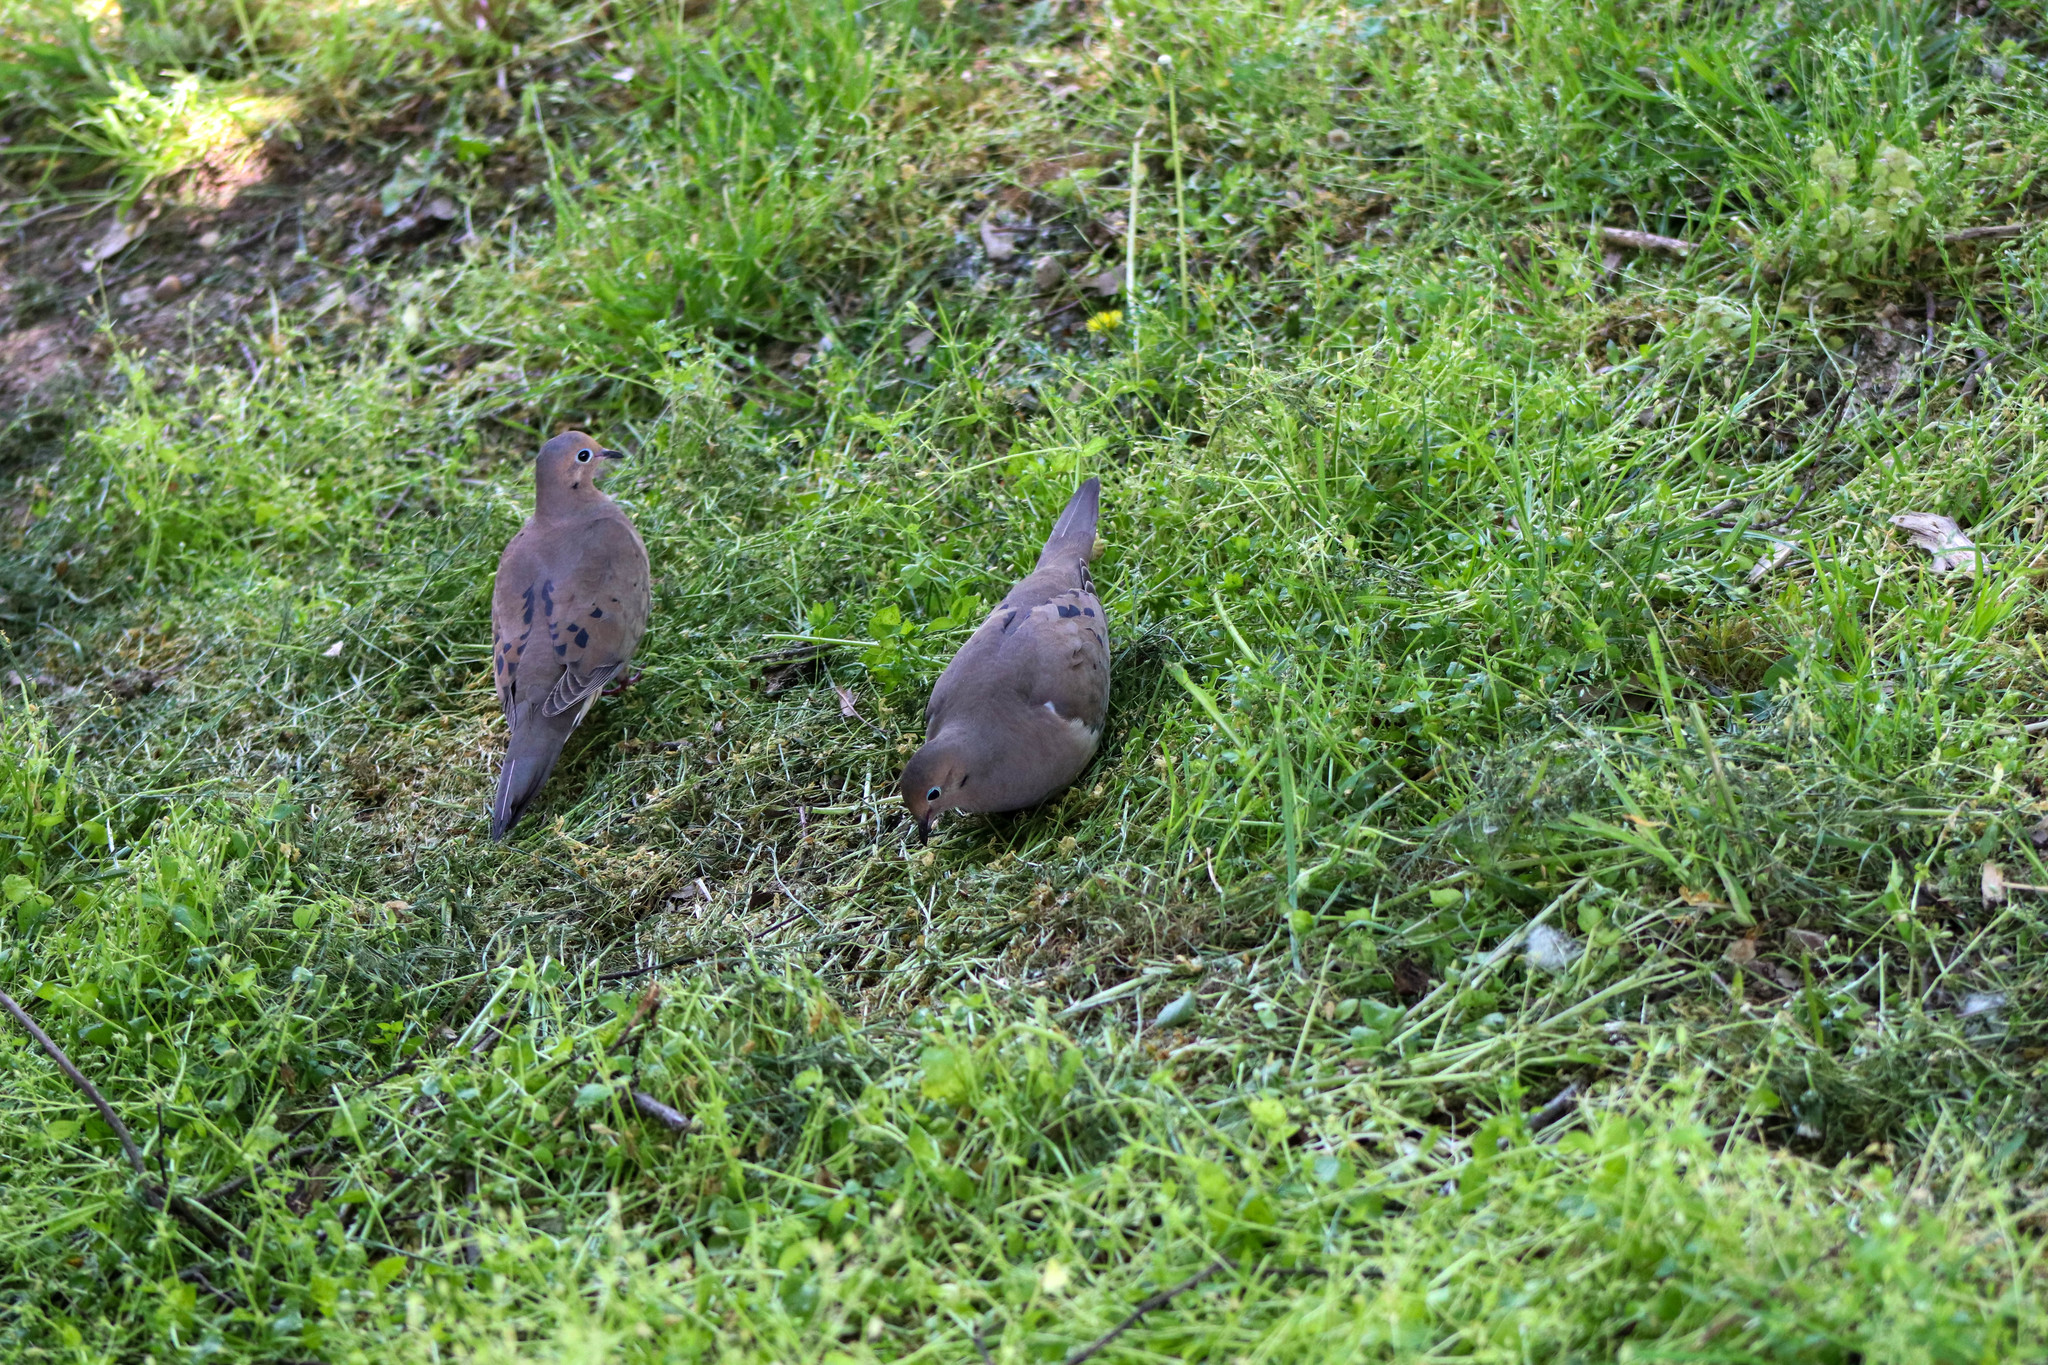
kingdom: Animalia
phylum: Chordata
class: Aves
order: Columbiformes
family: Columbidae
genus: Zenaida
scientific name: Zenaida macroura
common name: Mourning dove
